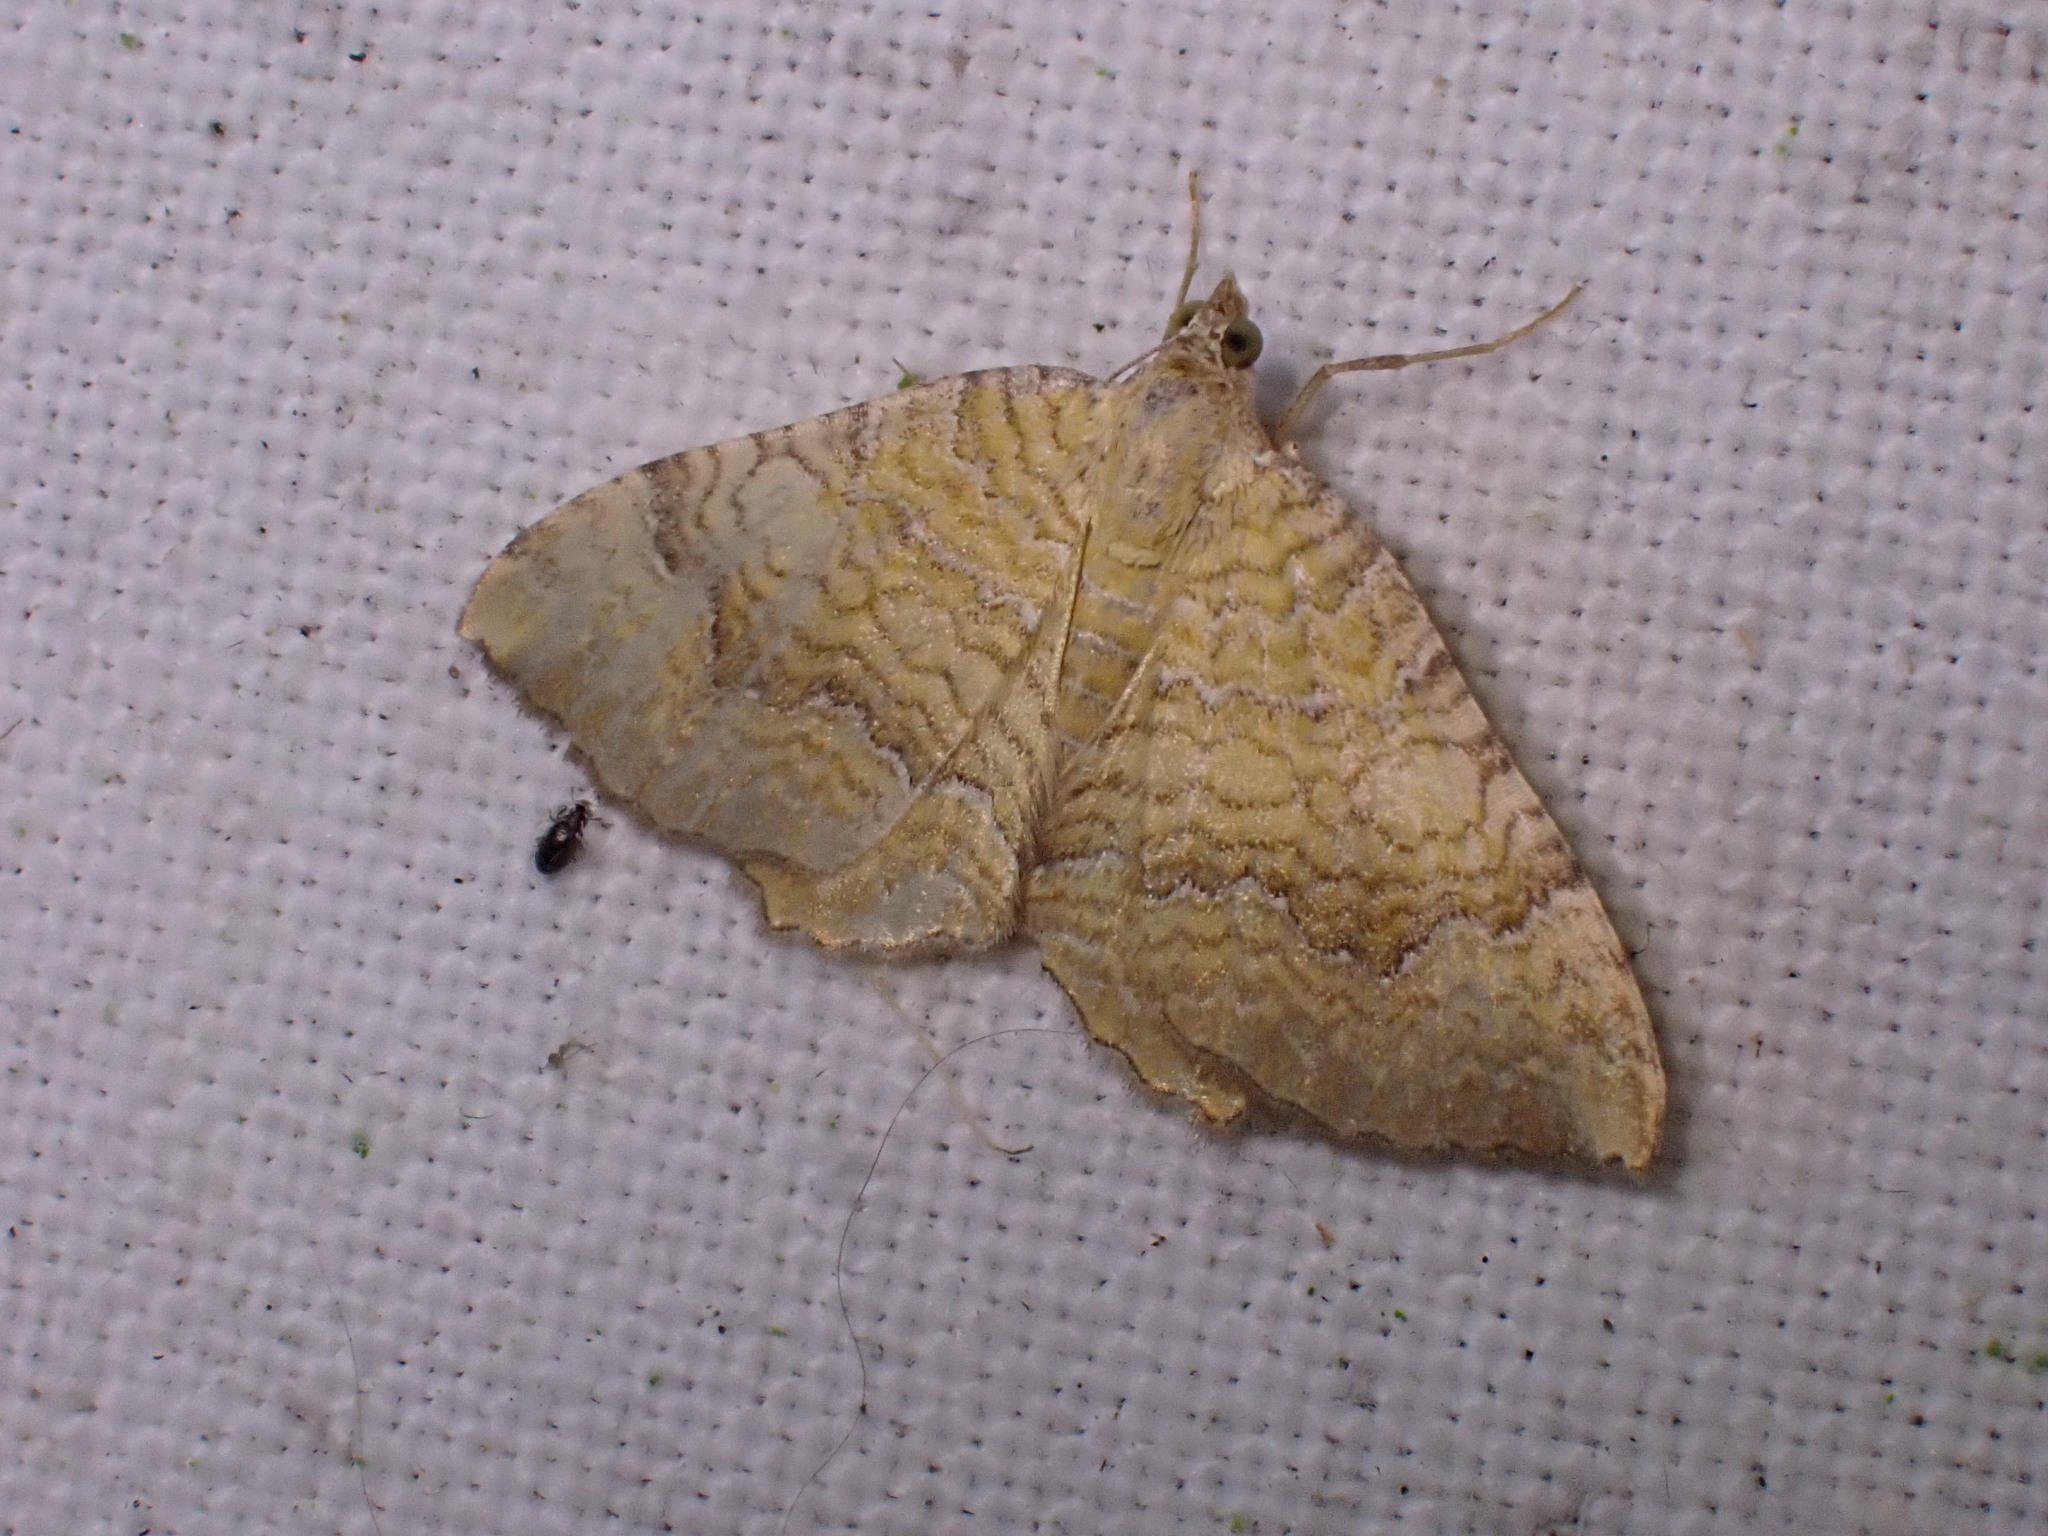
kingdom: Animalia
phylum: Arthropoda
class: Insecta
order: Lepidoptera
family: Geometridae
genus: Camptogramma
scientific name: Camptogramma bilineata
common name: Yellow shell
